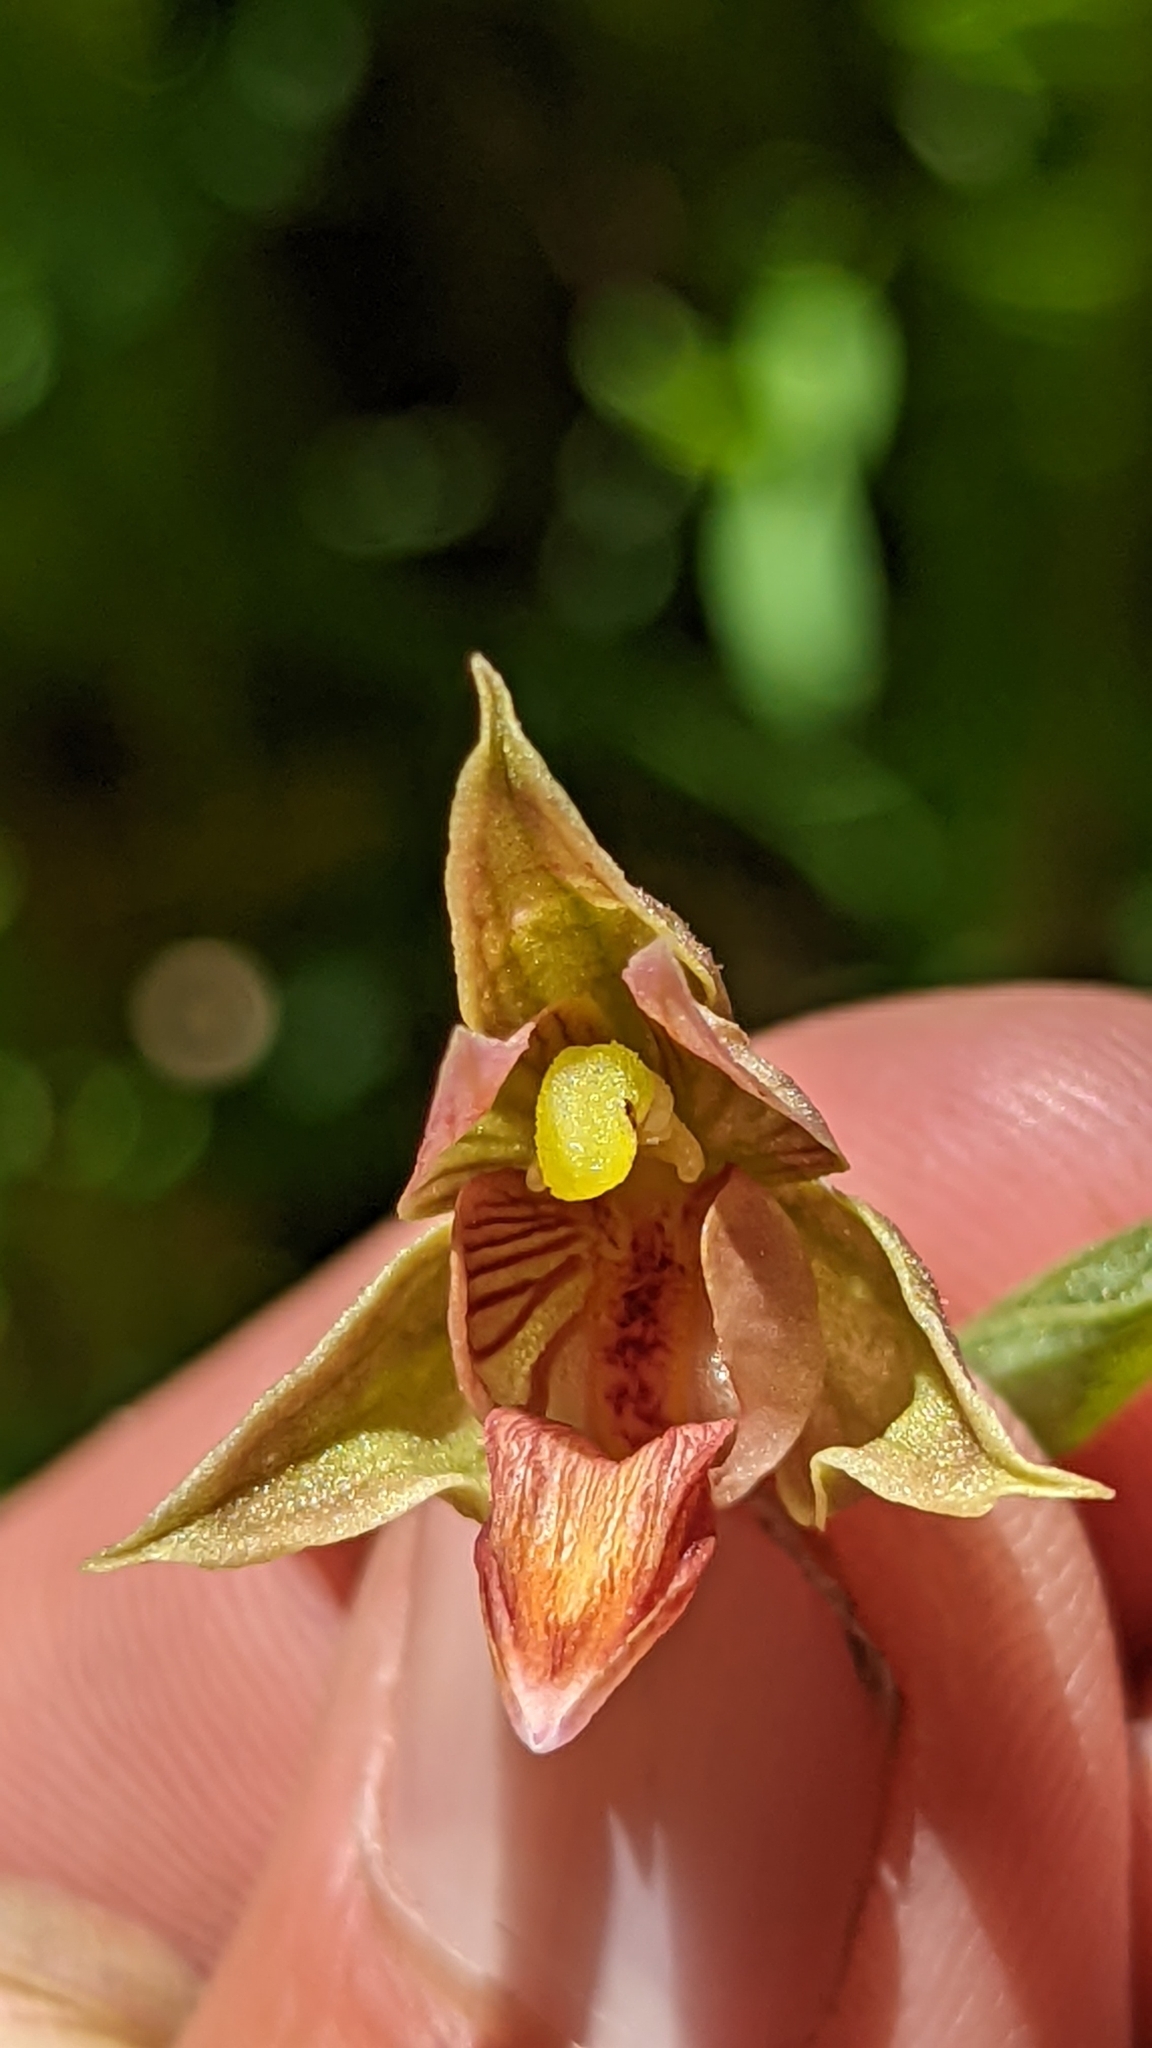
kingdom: Plantae
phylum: Tracheophyta
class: Liliopsida
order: Asparagales
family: Orchidaceae
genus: Epipactis
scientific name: Epipactis gigantea
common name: Chatterbox
